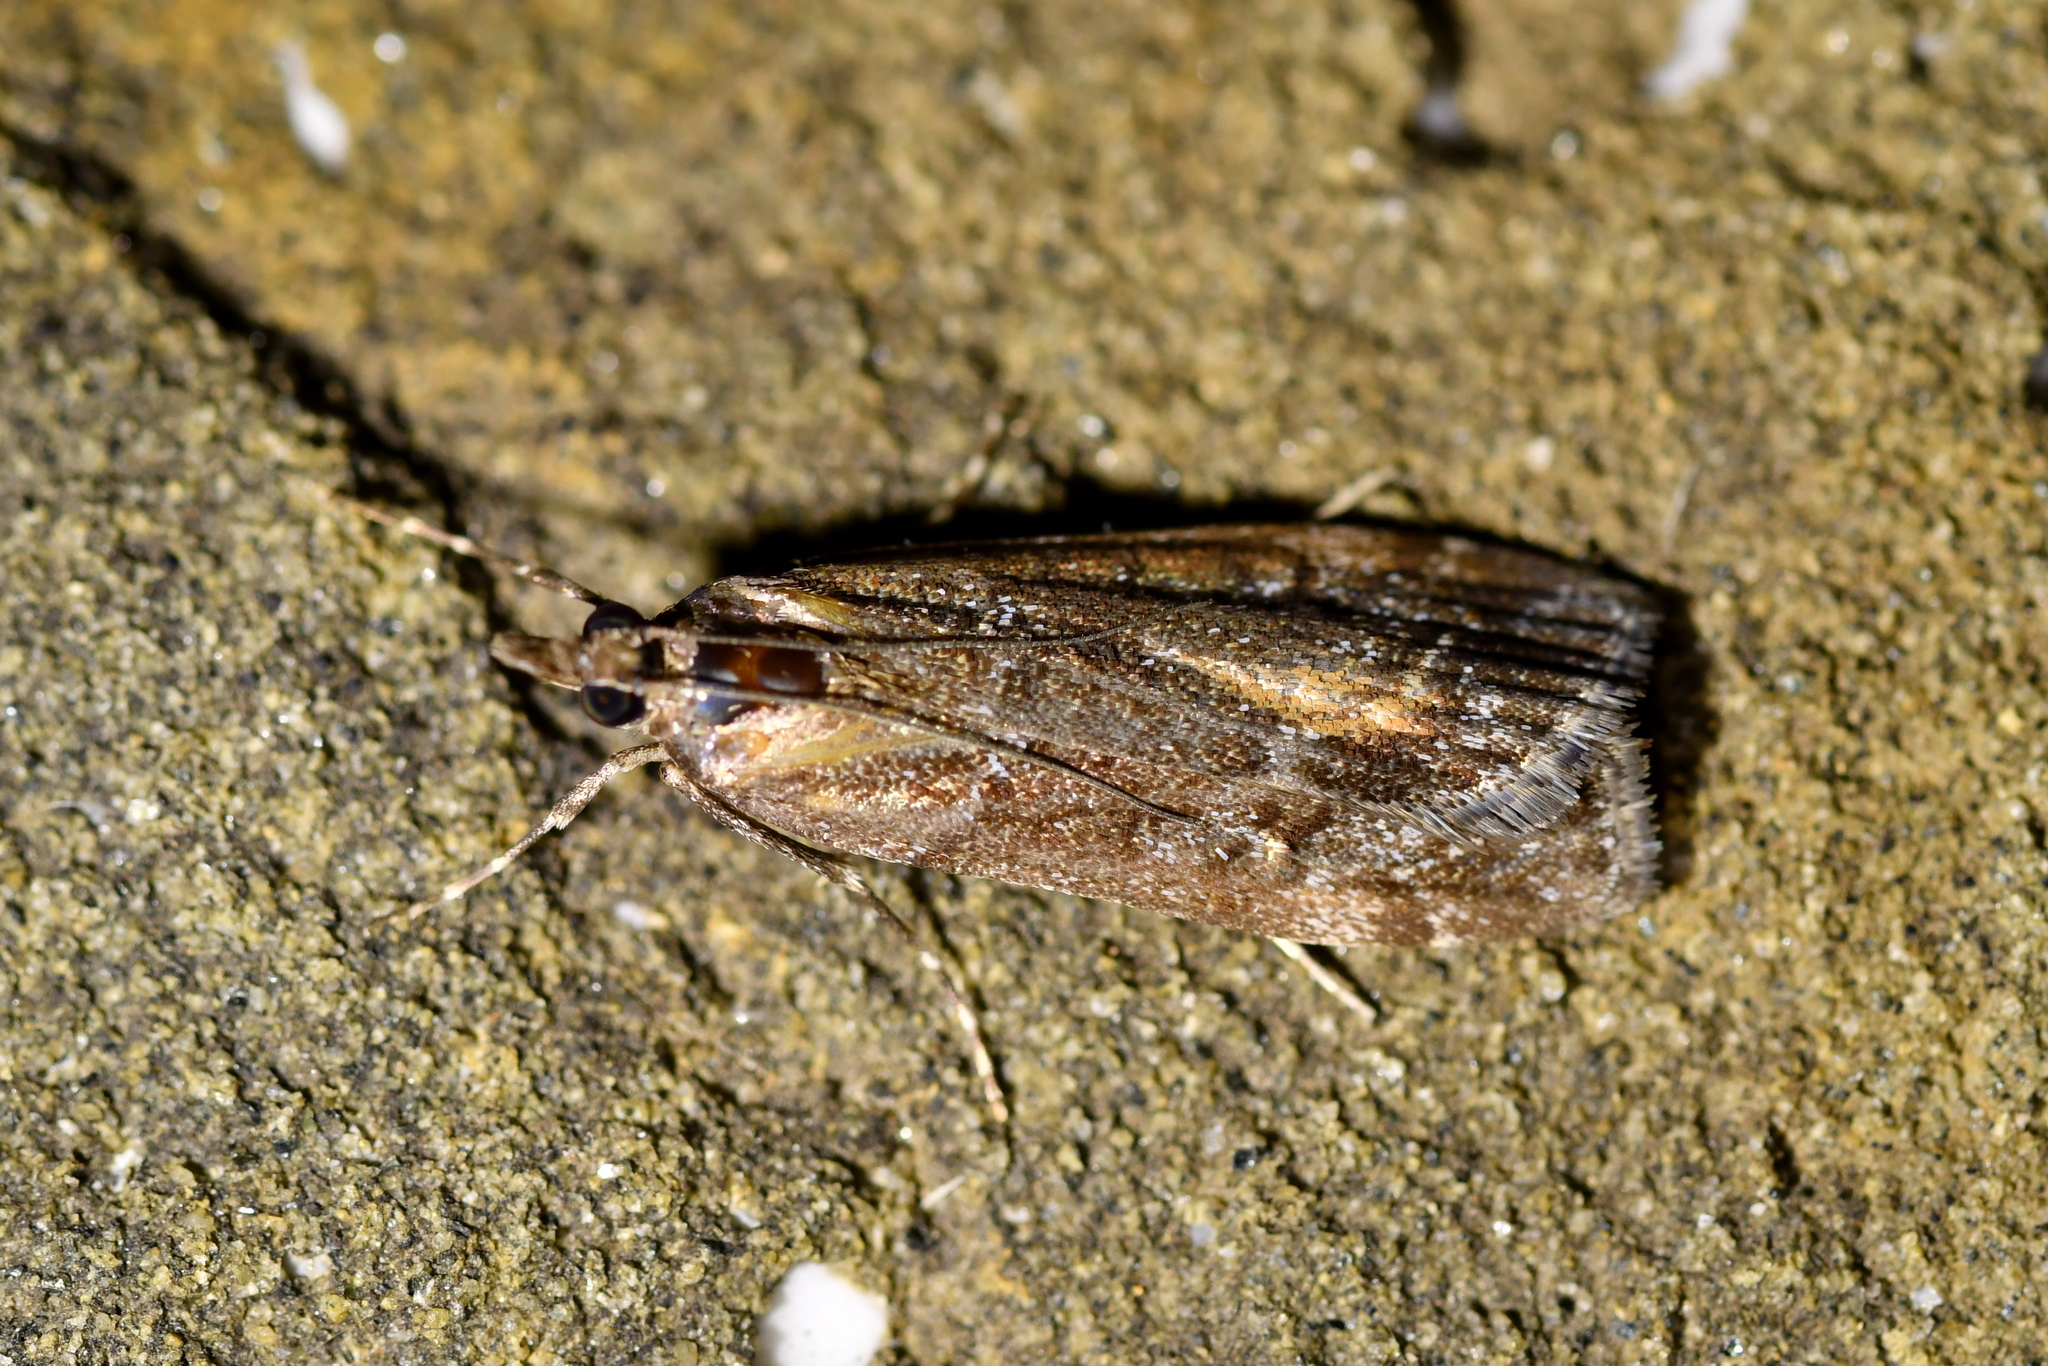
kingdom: Animalia
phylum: Arthropoda
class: Insecta
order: Lepidoptera
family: Crambidae
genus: Eudonia
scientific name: Eudonia submarginalis
